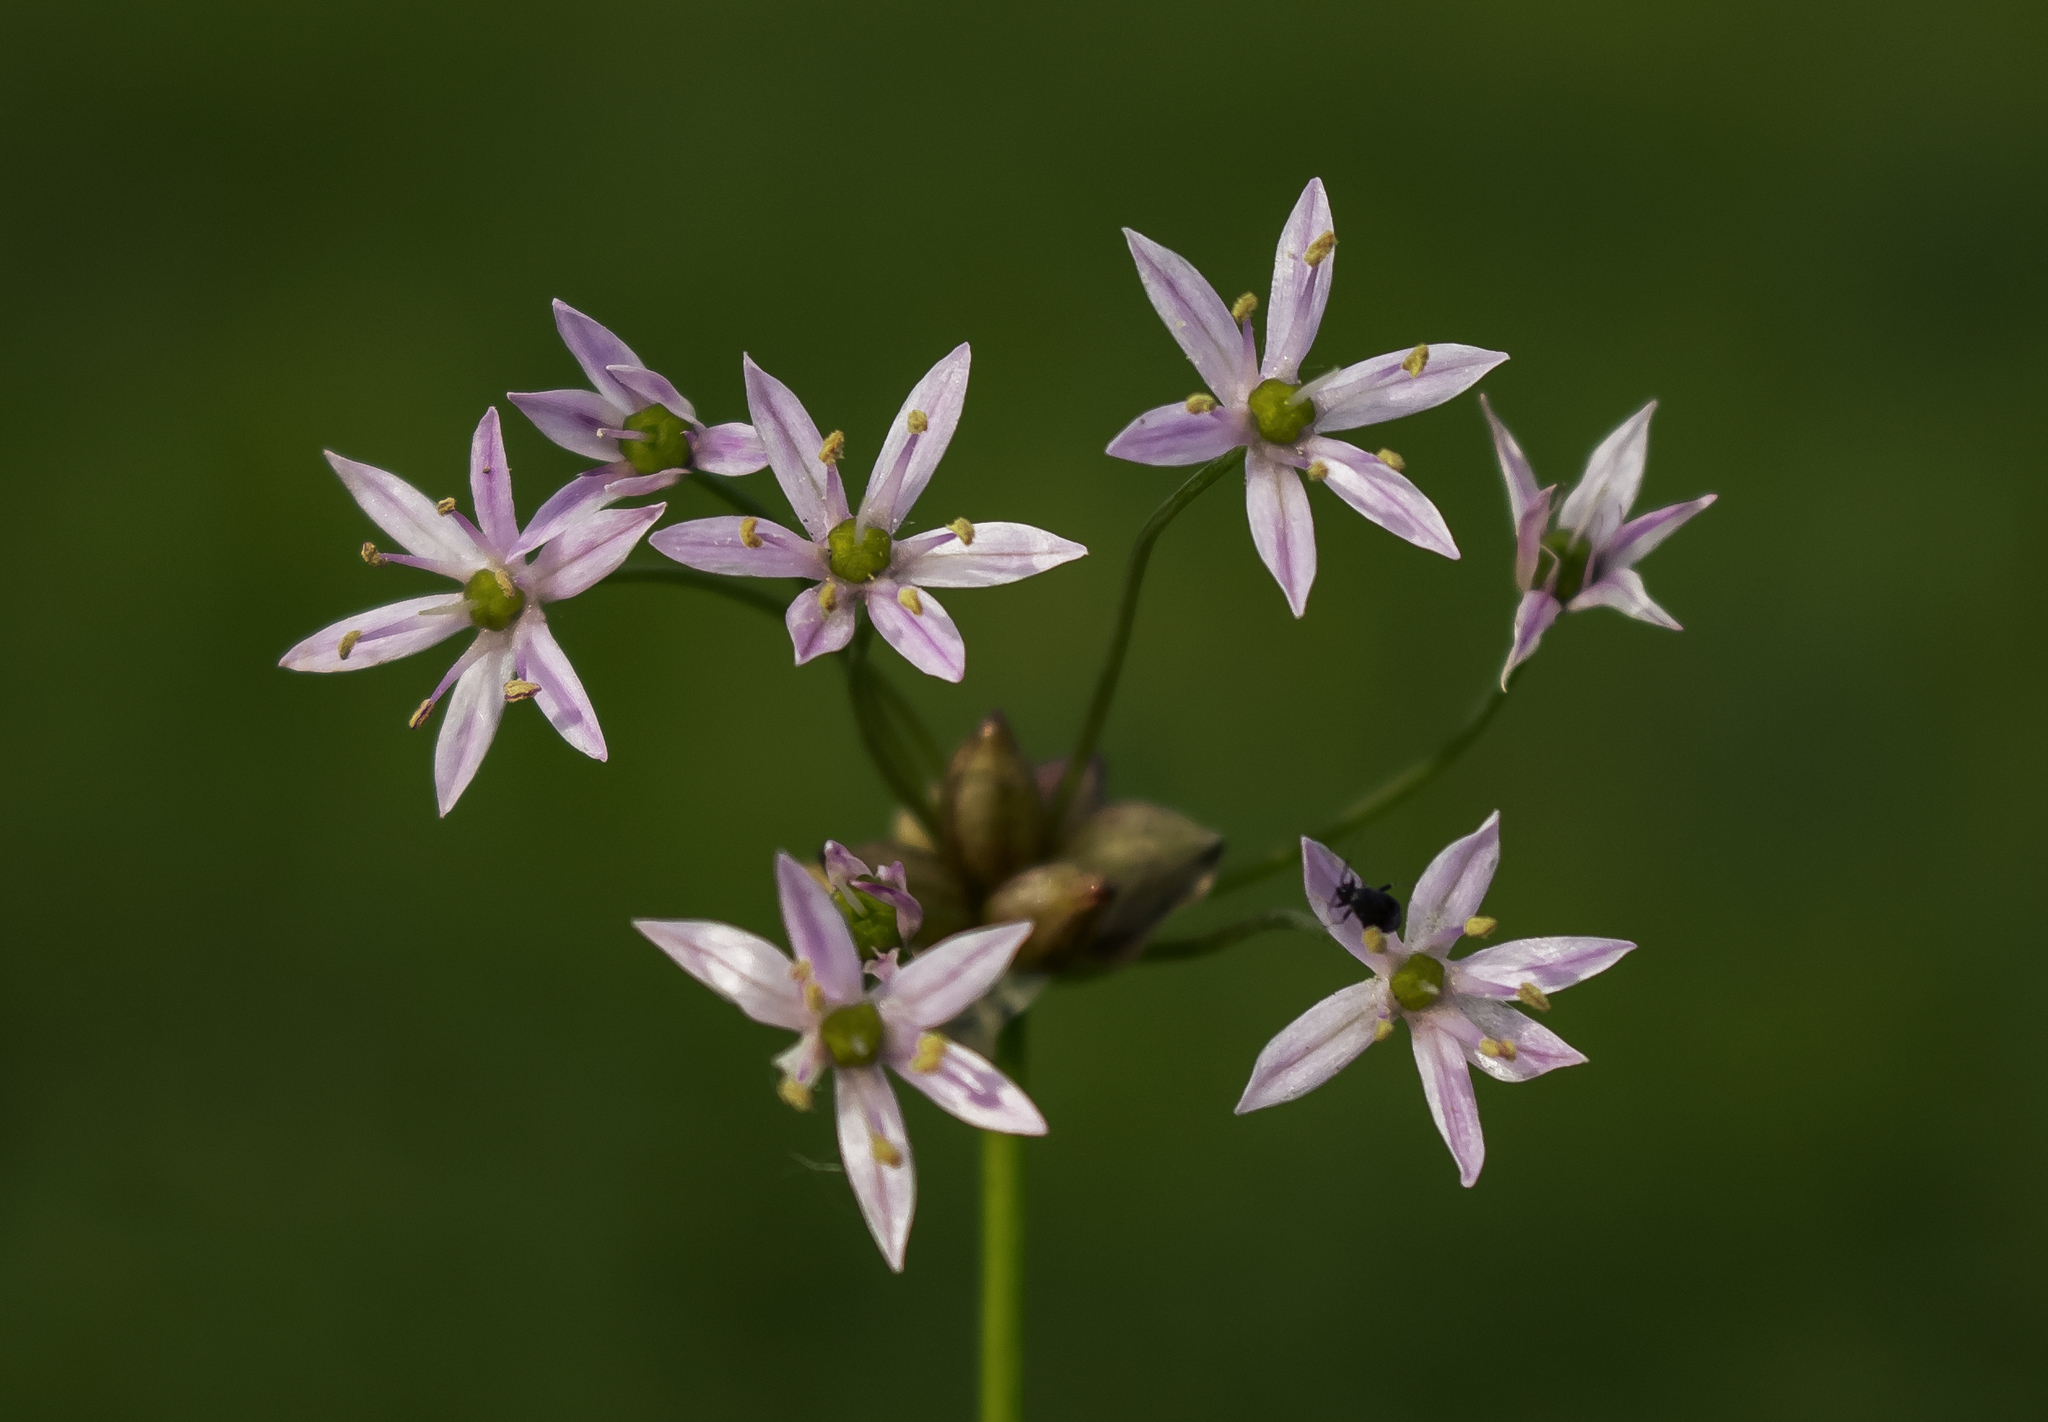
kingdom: Plantae
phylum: Tracheophyta
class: Liliopsida
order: Asparagales
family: Amaryllidaceae
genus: Allium
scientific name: Allium canadense
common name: Meadow garlic
